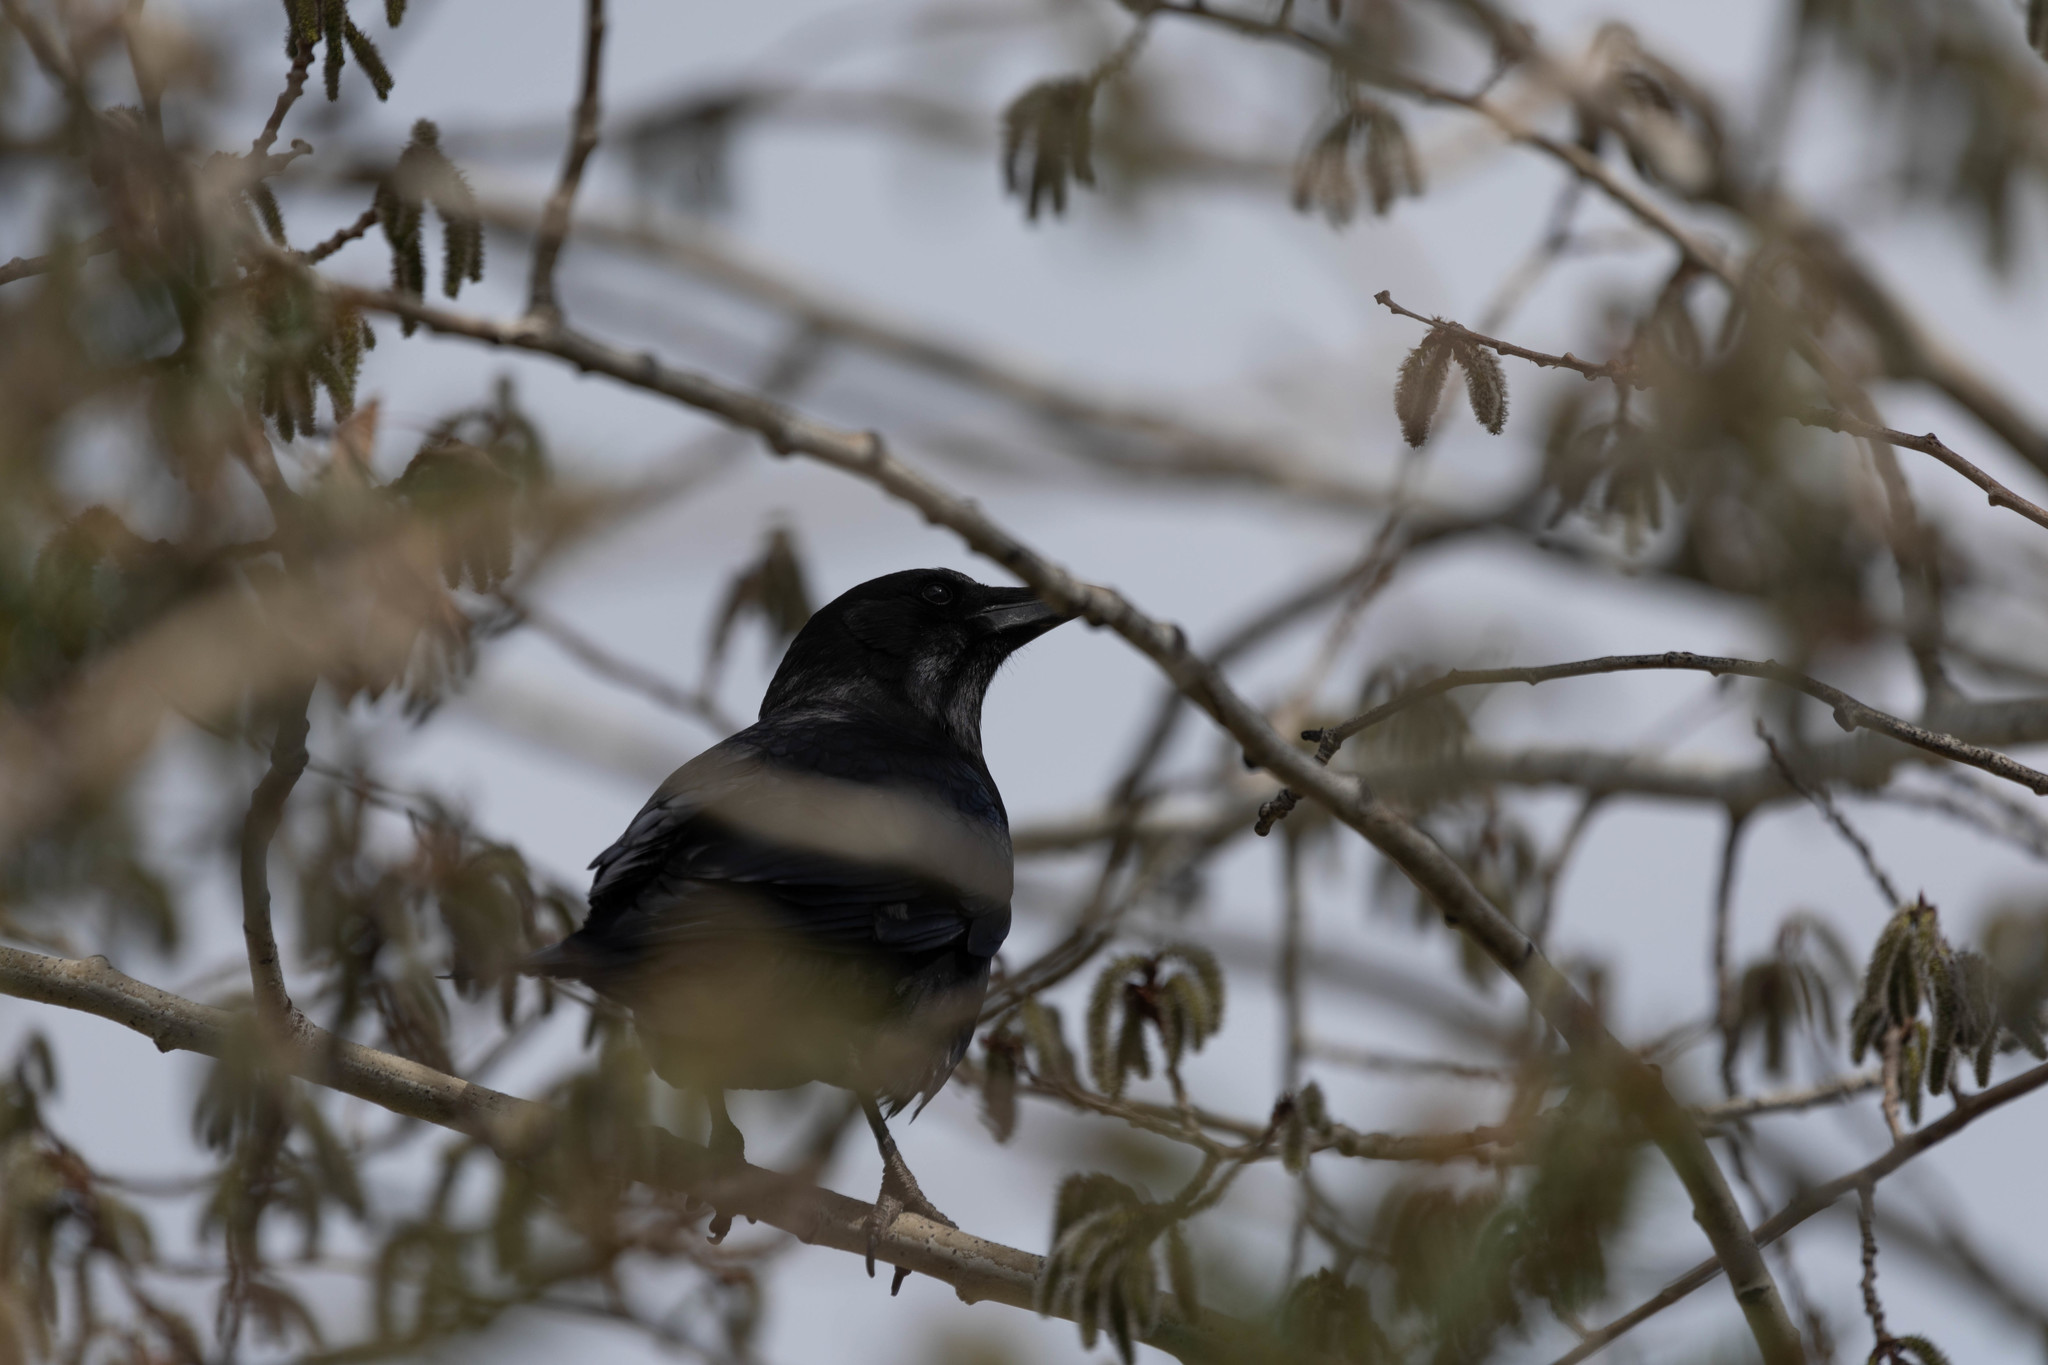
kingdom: Animalia
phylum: Chordata
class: Aves
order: Passeriformes
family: Corvidae
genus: Corvus
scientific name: Corvus brachyrhynchos
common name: American crow
